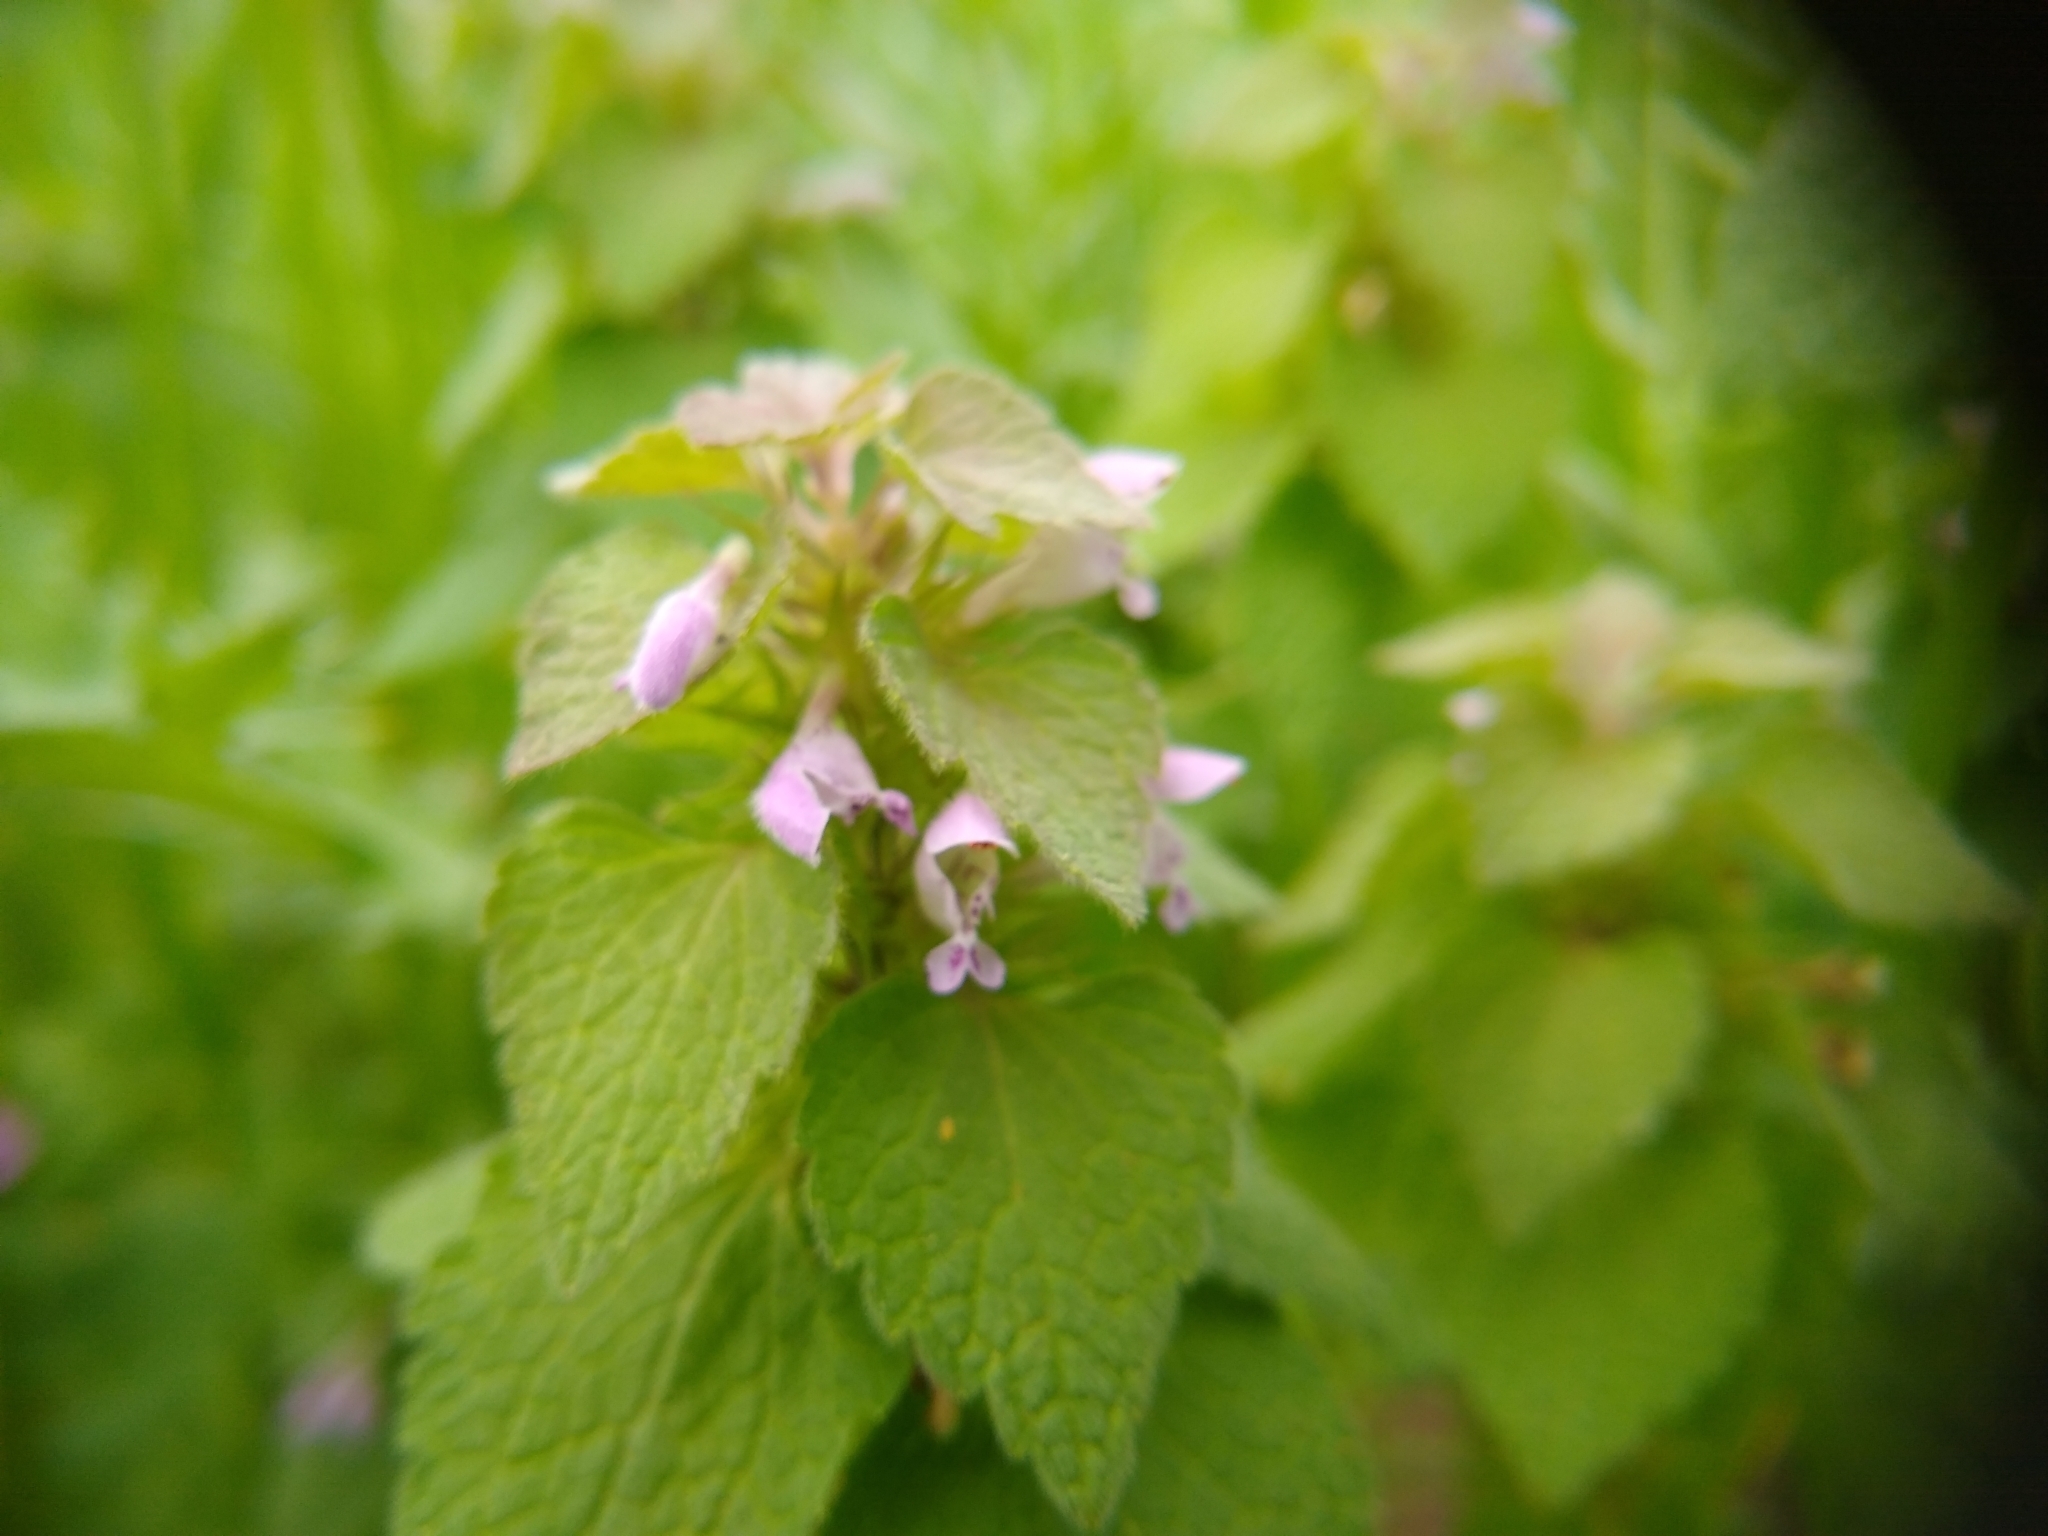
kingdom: Plantae
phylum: Tracheophyta
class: Magnoliopsida
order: Lamiales
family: Lamiaceae
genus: Lamium
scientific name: Lamium purpureum
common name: Red dead-nettle
